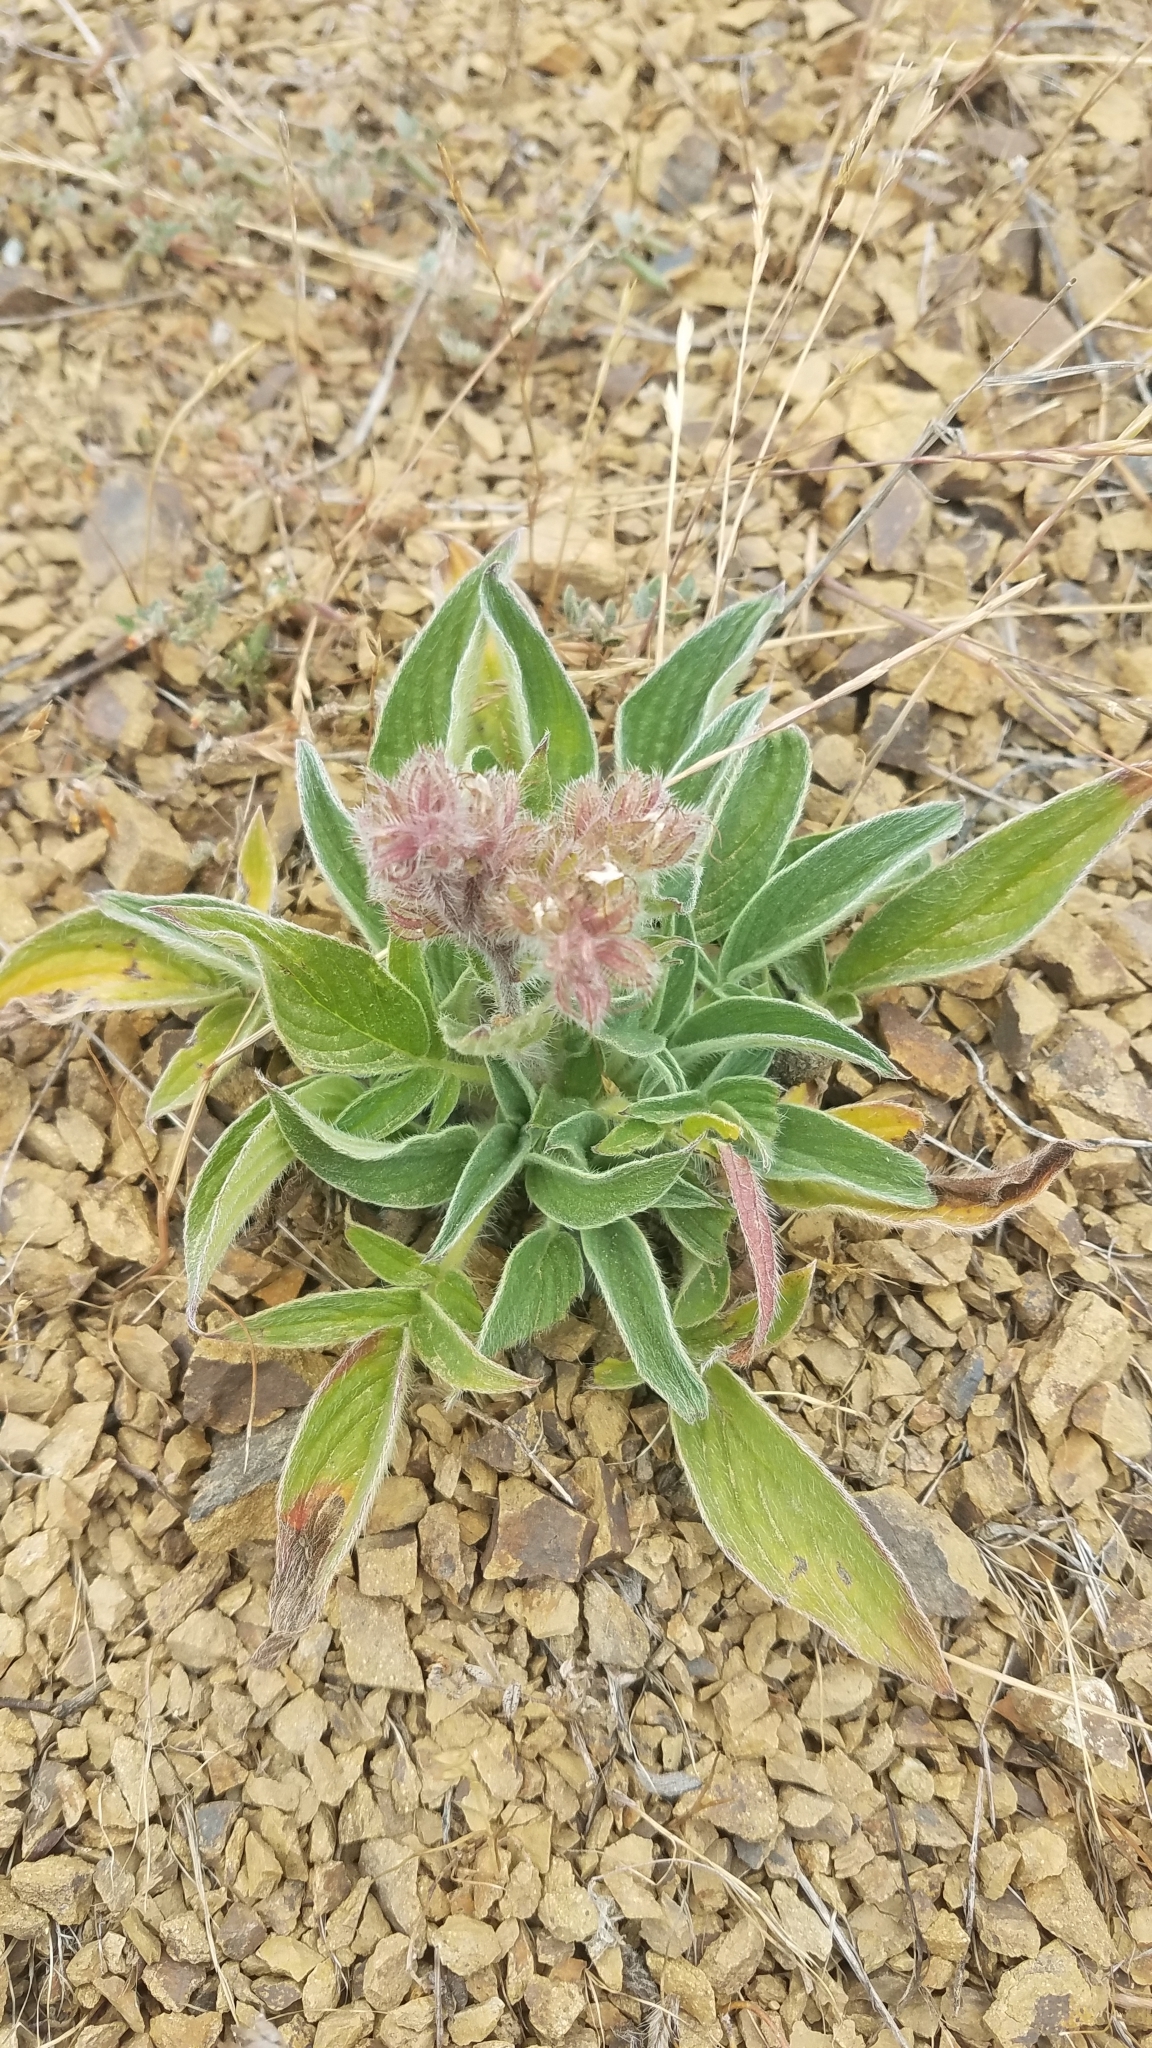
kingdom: Plantae
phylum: Tracheophyta
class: Magnoliopsida
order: Boraginales
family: Hydrophyllaceae
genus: Phacelia
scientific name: Phacelia californica
